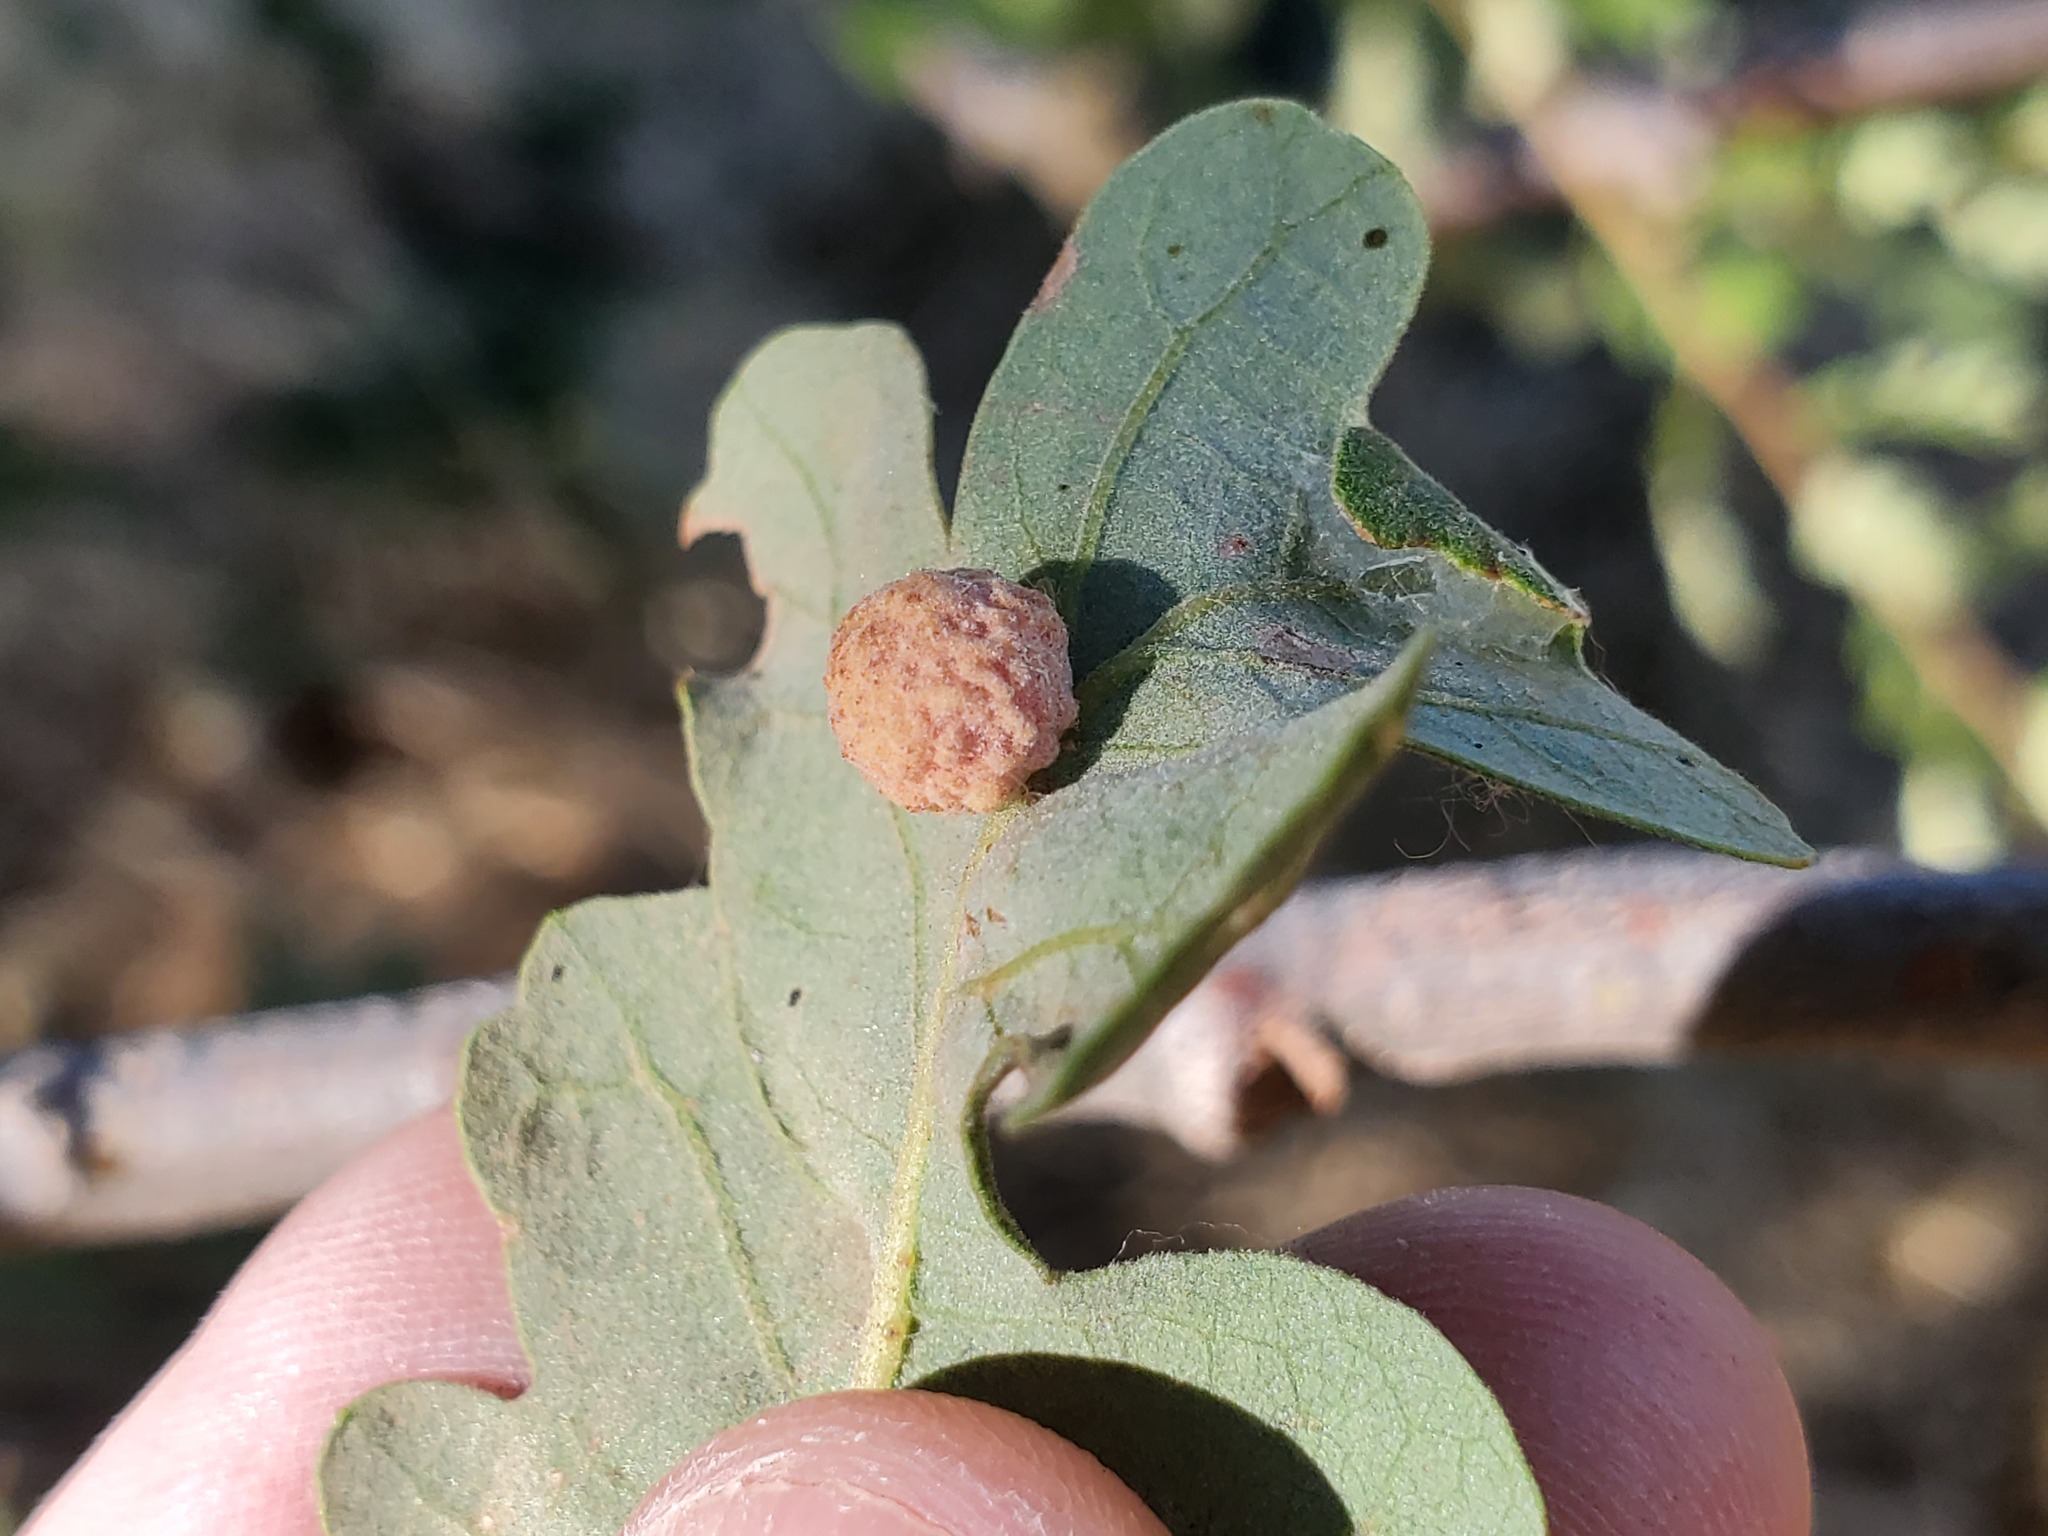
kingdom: Animalia
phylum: Arthropoda
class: Insecta
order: Hymenoptera
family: Cynipidae
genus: Cynips
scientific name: Cynips conspicua
